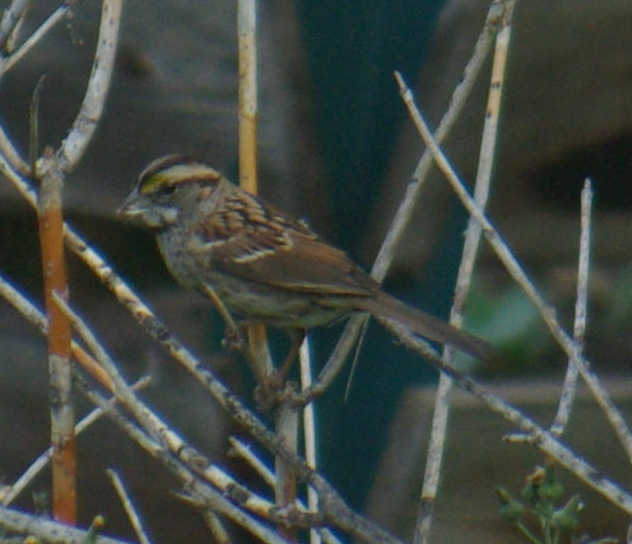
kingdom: Animalia
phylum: Chordata
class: Aves
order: Passeriformes
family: Passerellidae
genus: Zonotrichia
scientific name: Zonotrichia albicollis
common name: White-throated sparrow
